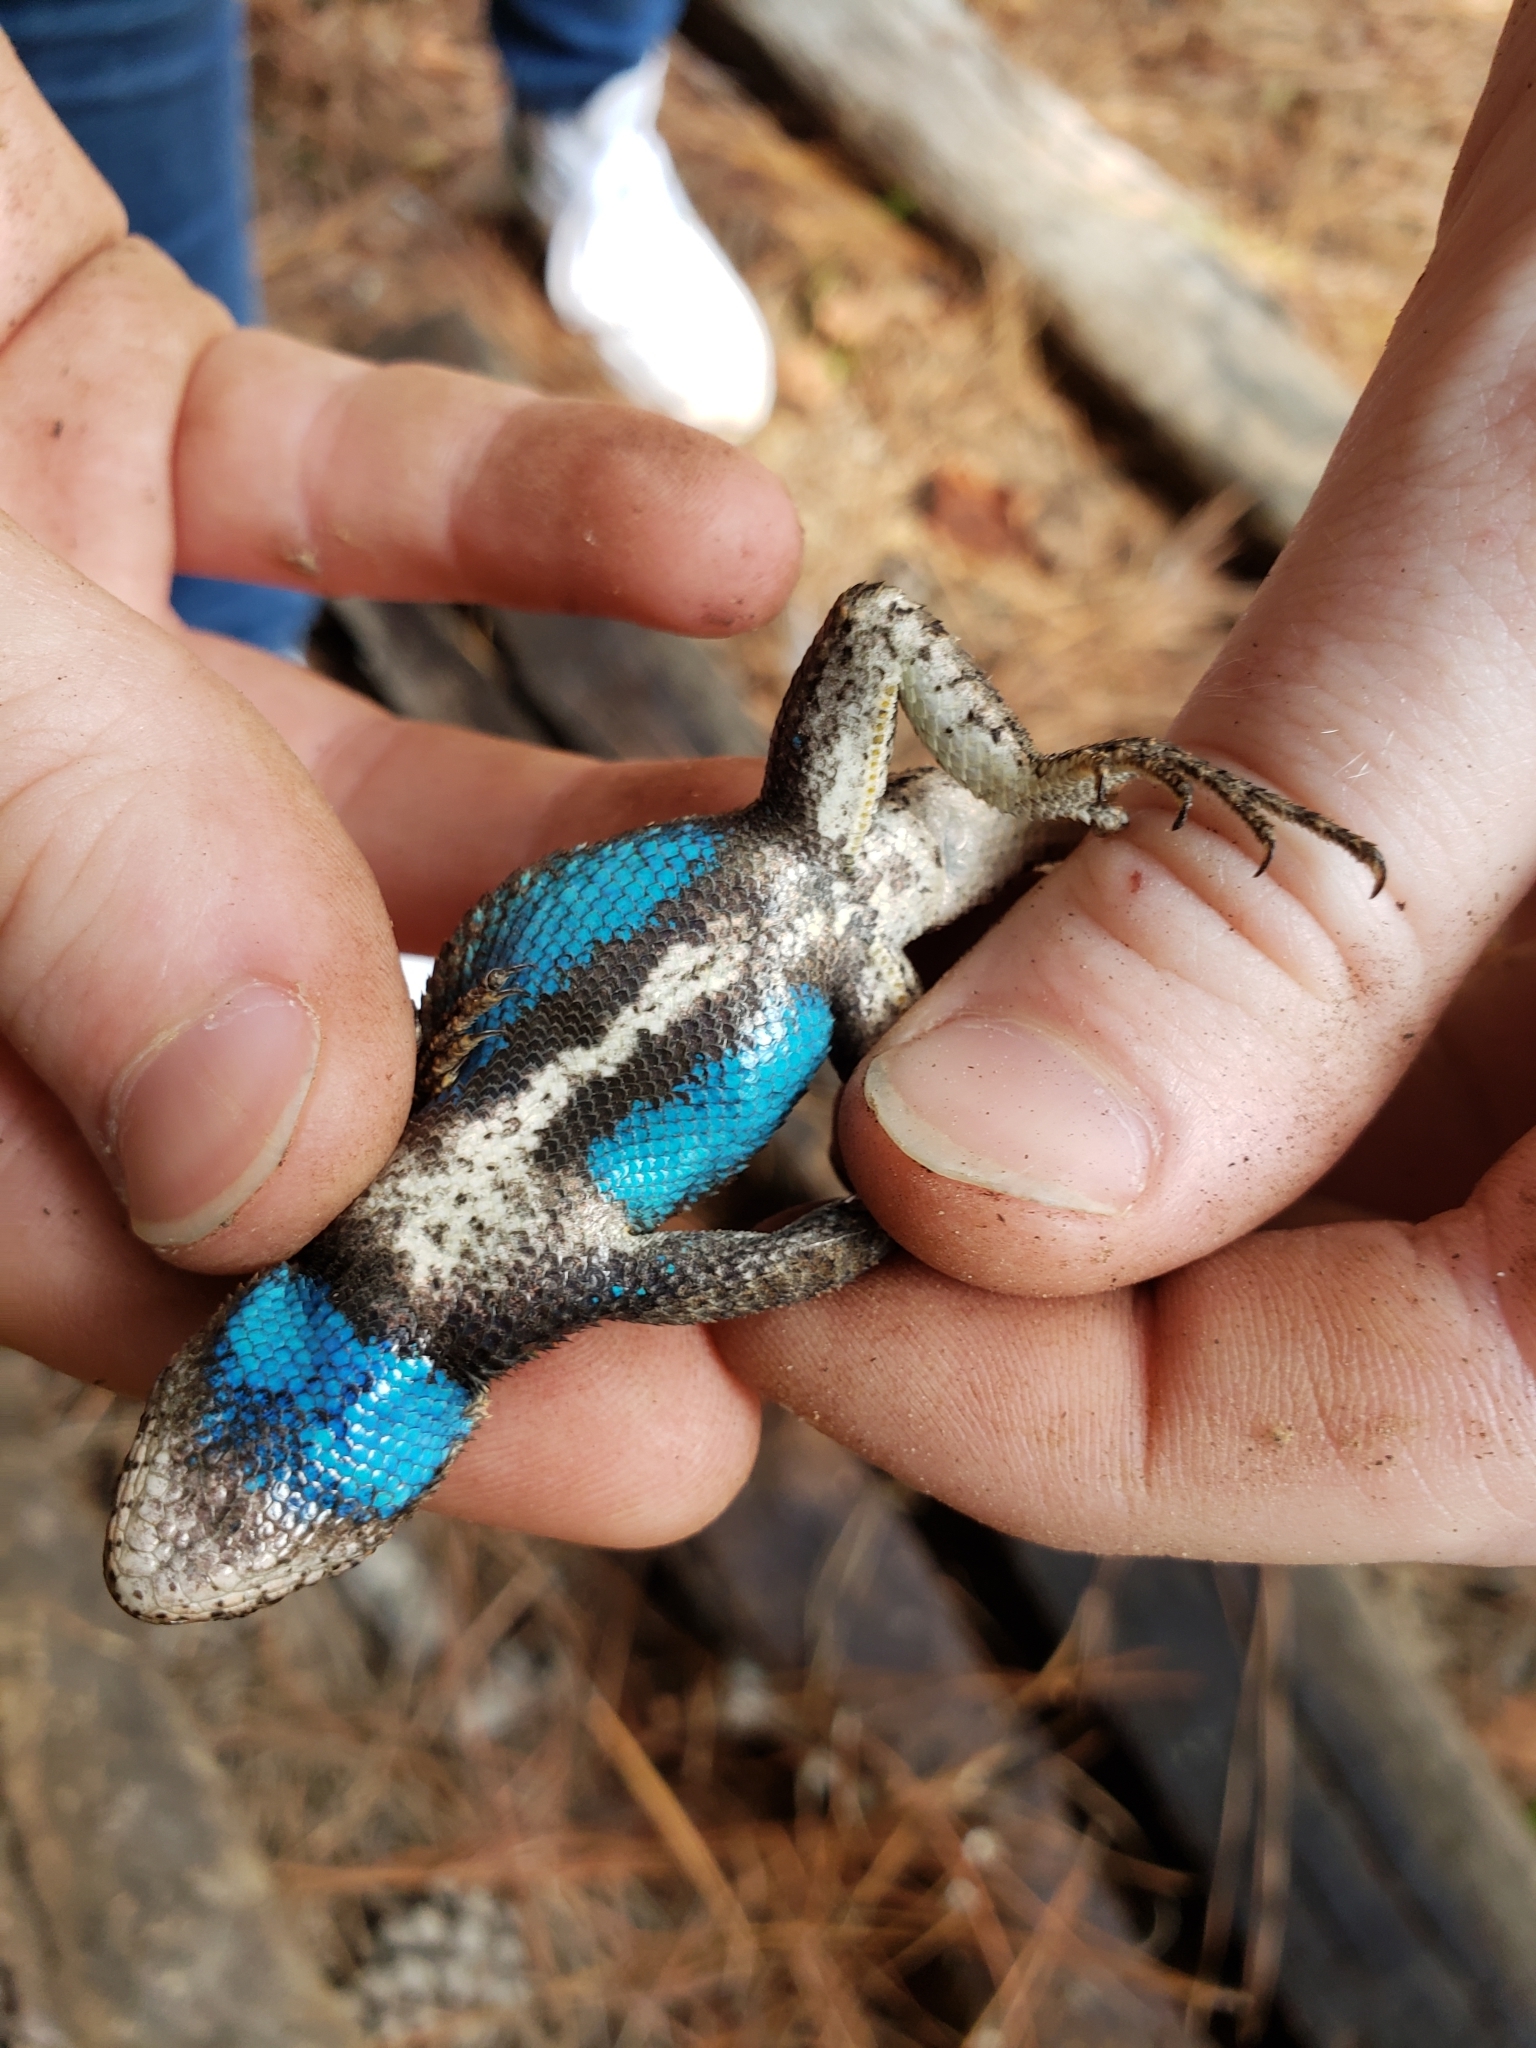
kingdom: Animalia
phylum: Chordata
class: Squamata
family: Phrynosomatidae
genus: Sceloporus
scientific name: Sceloporus consobrinus
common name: Southern prairie lizard
